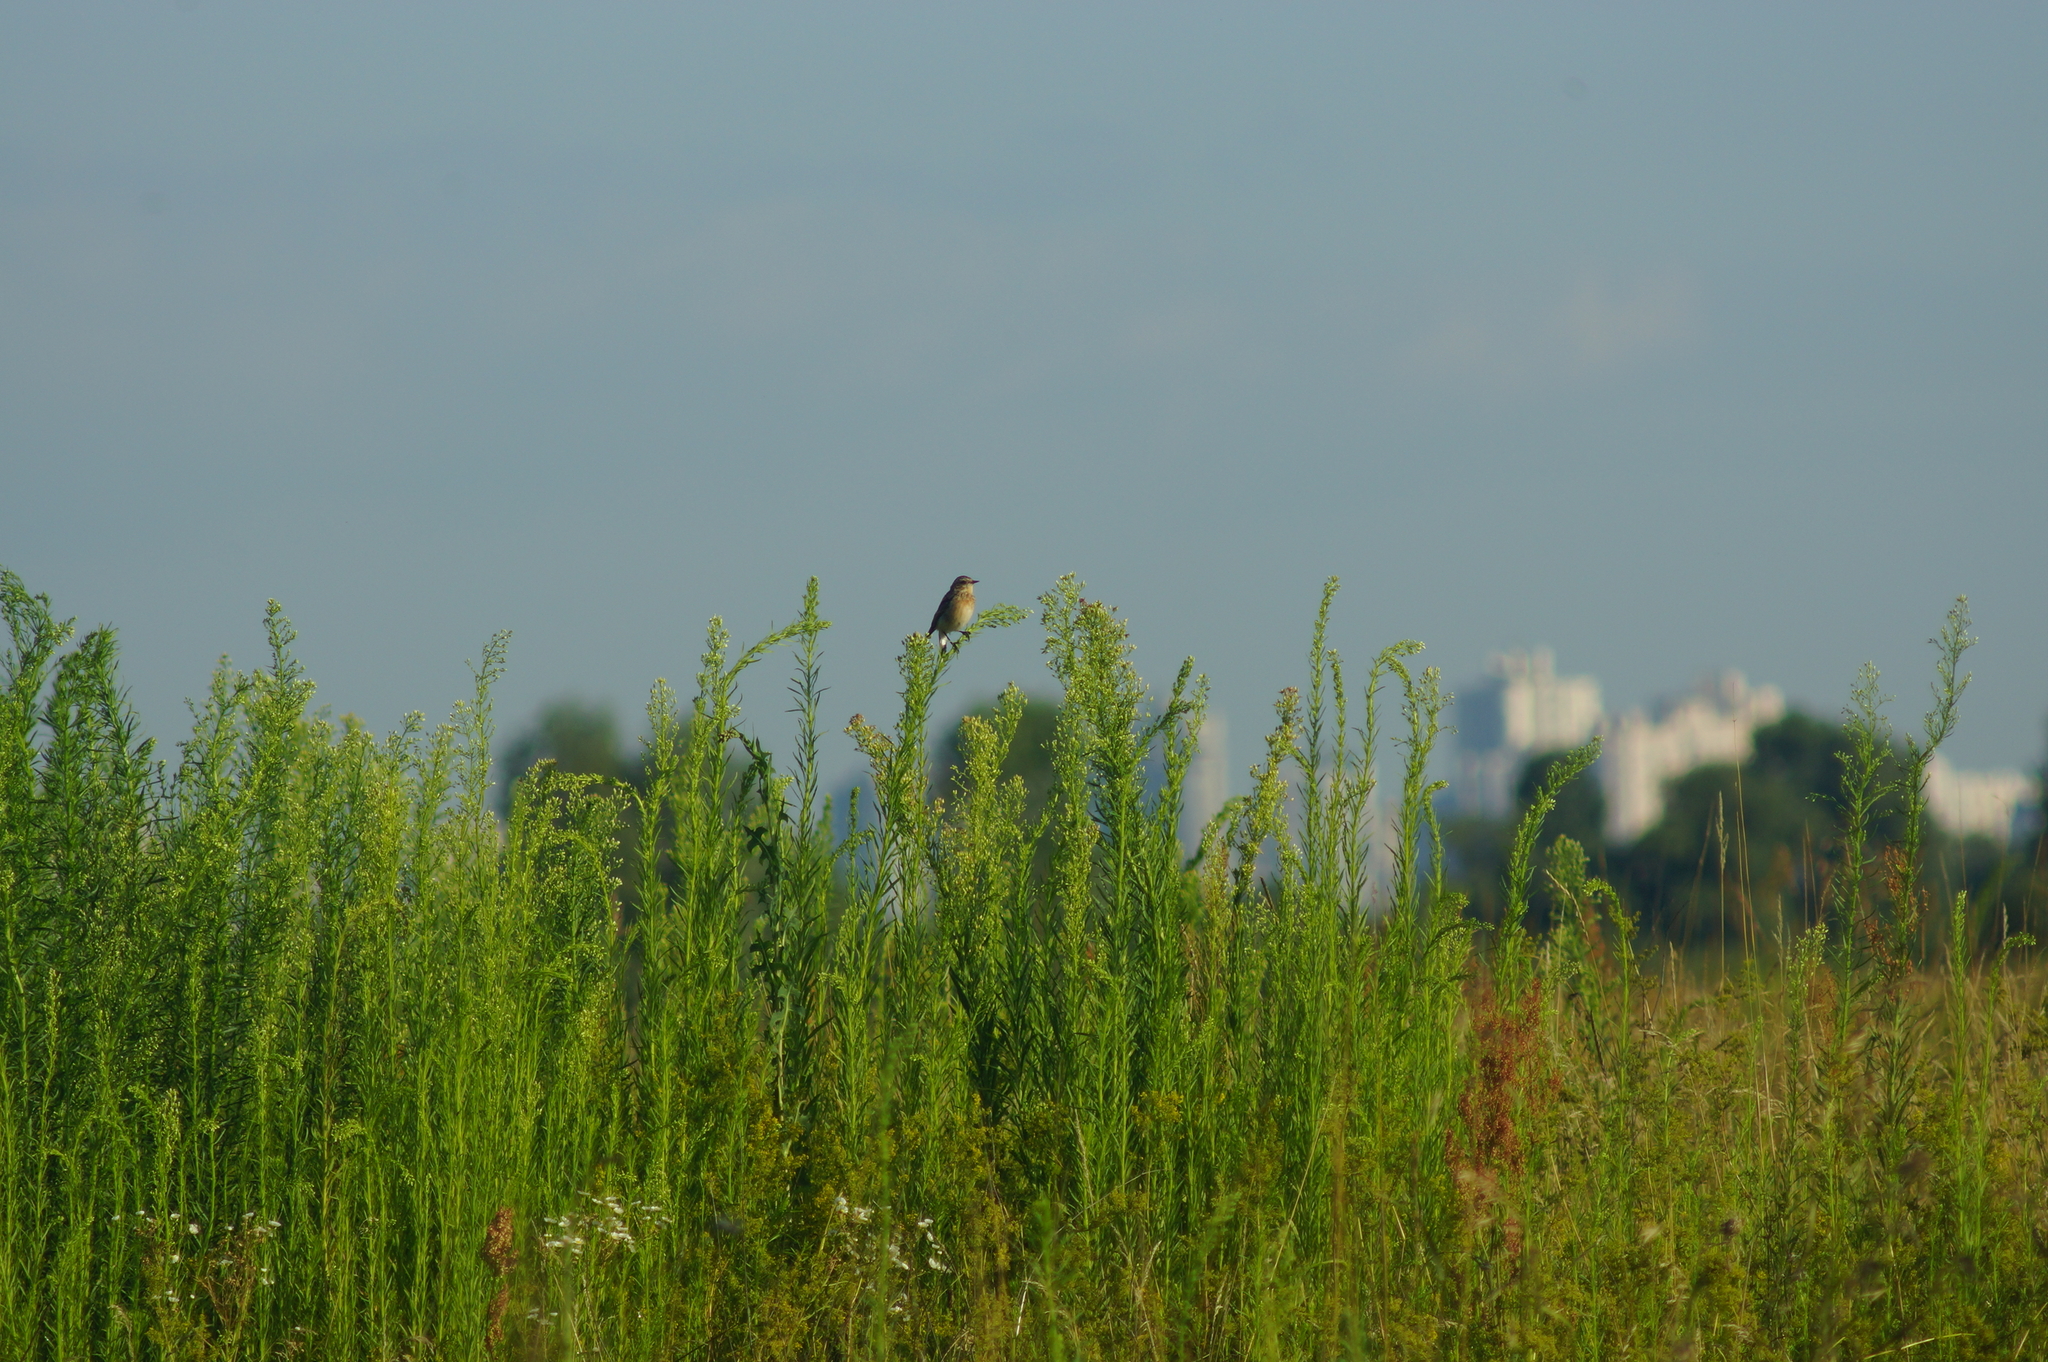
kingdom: Animalia
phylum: Chordata
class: Aves
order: Passeriformes
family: Muscicapidae
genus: Saxicola
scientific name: Saxicola rubetra
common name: Whinchat
